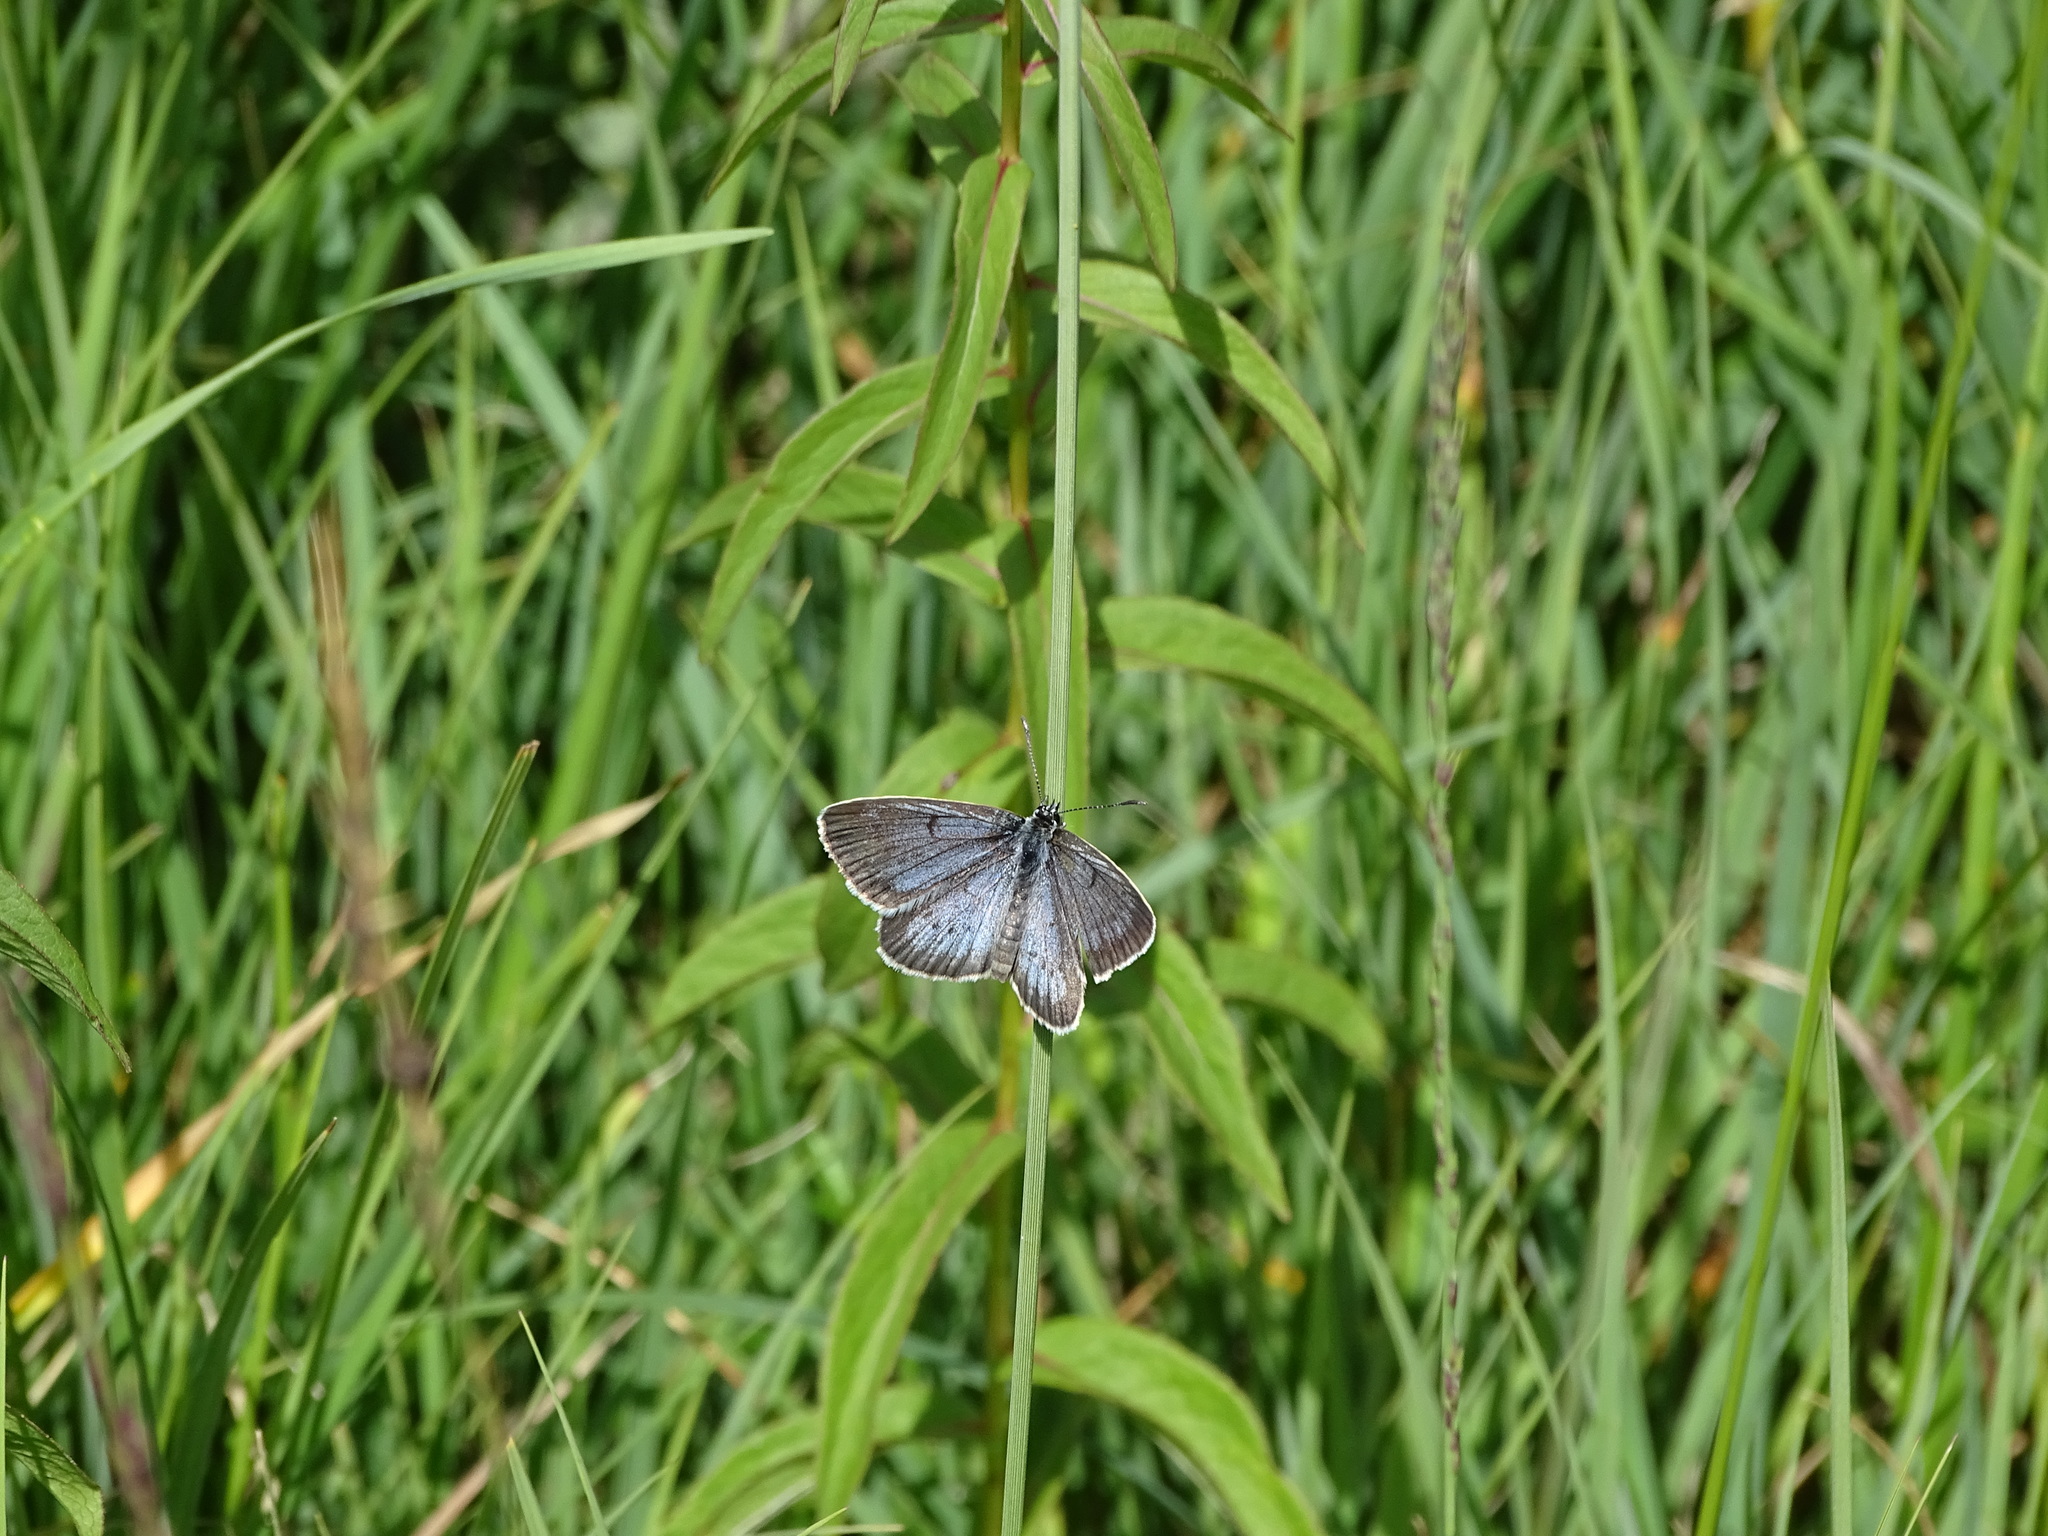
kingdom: Animalia
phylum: Arthropoda
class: Insecta
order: Lepidoptera
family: Lycaenidae
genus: Phengaris
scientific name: Phengaris teleius
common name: Scarce large blue
